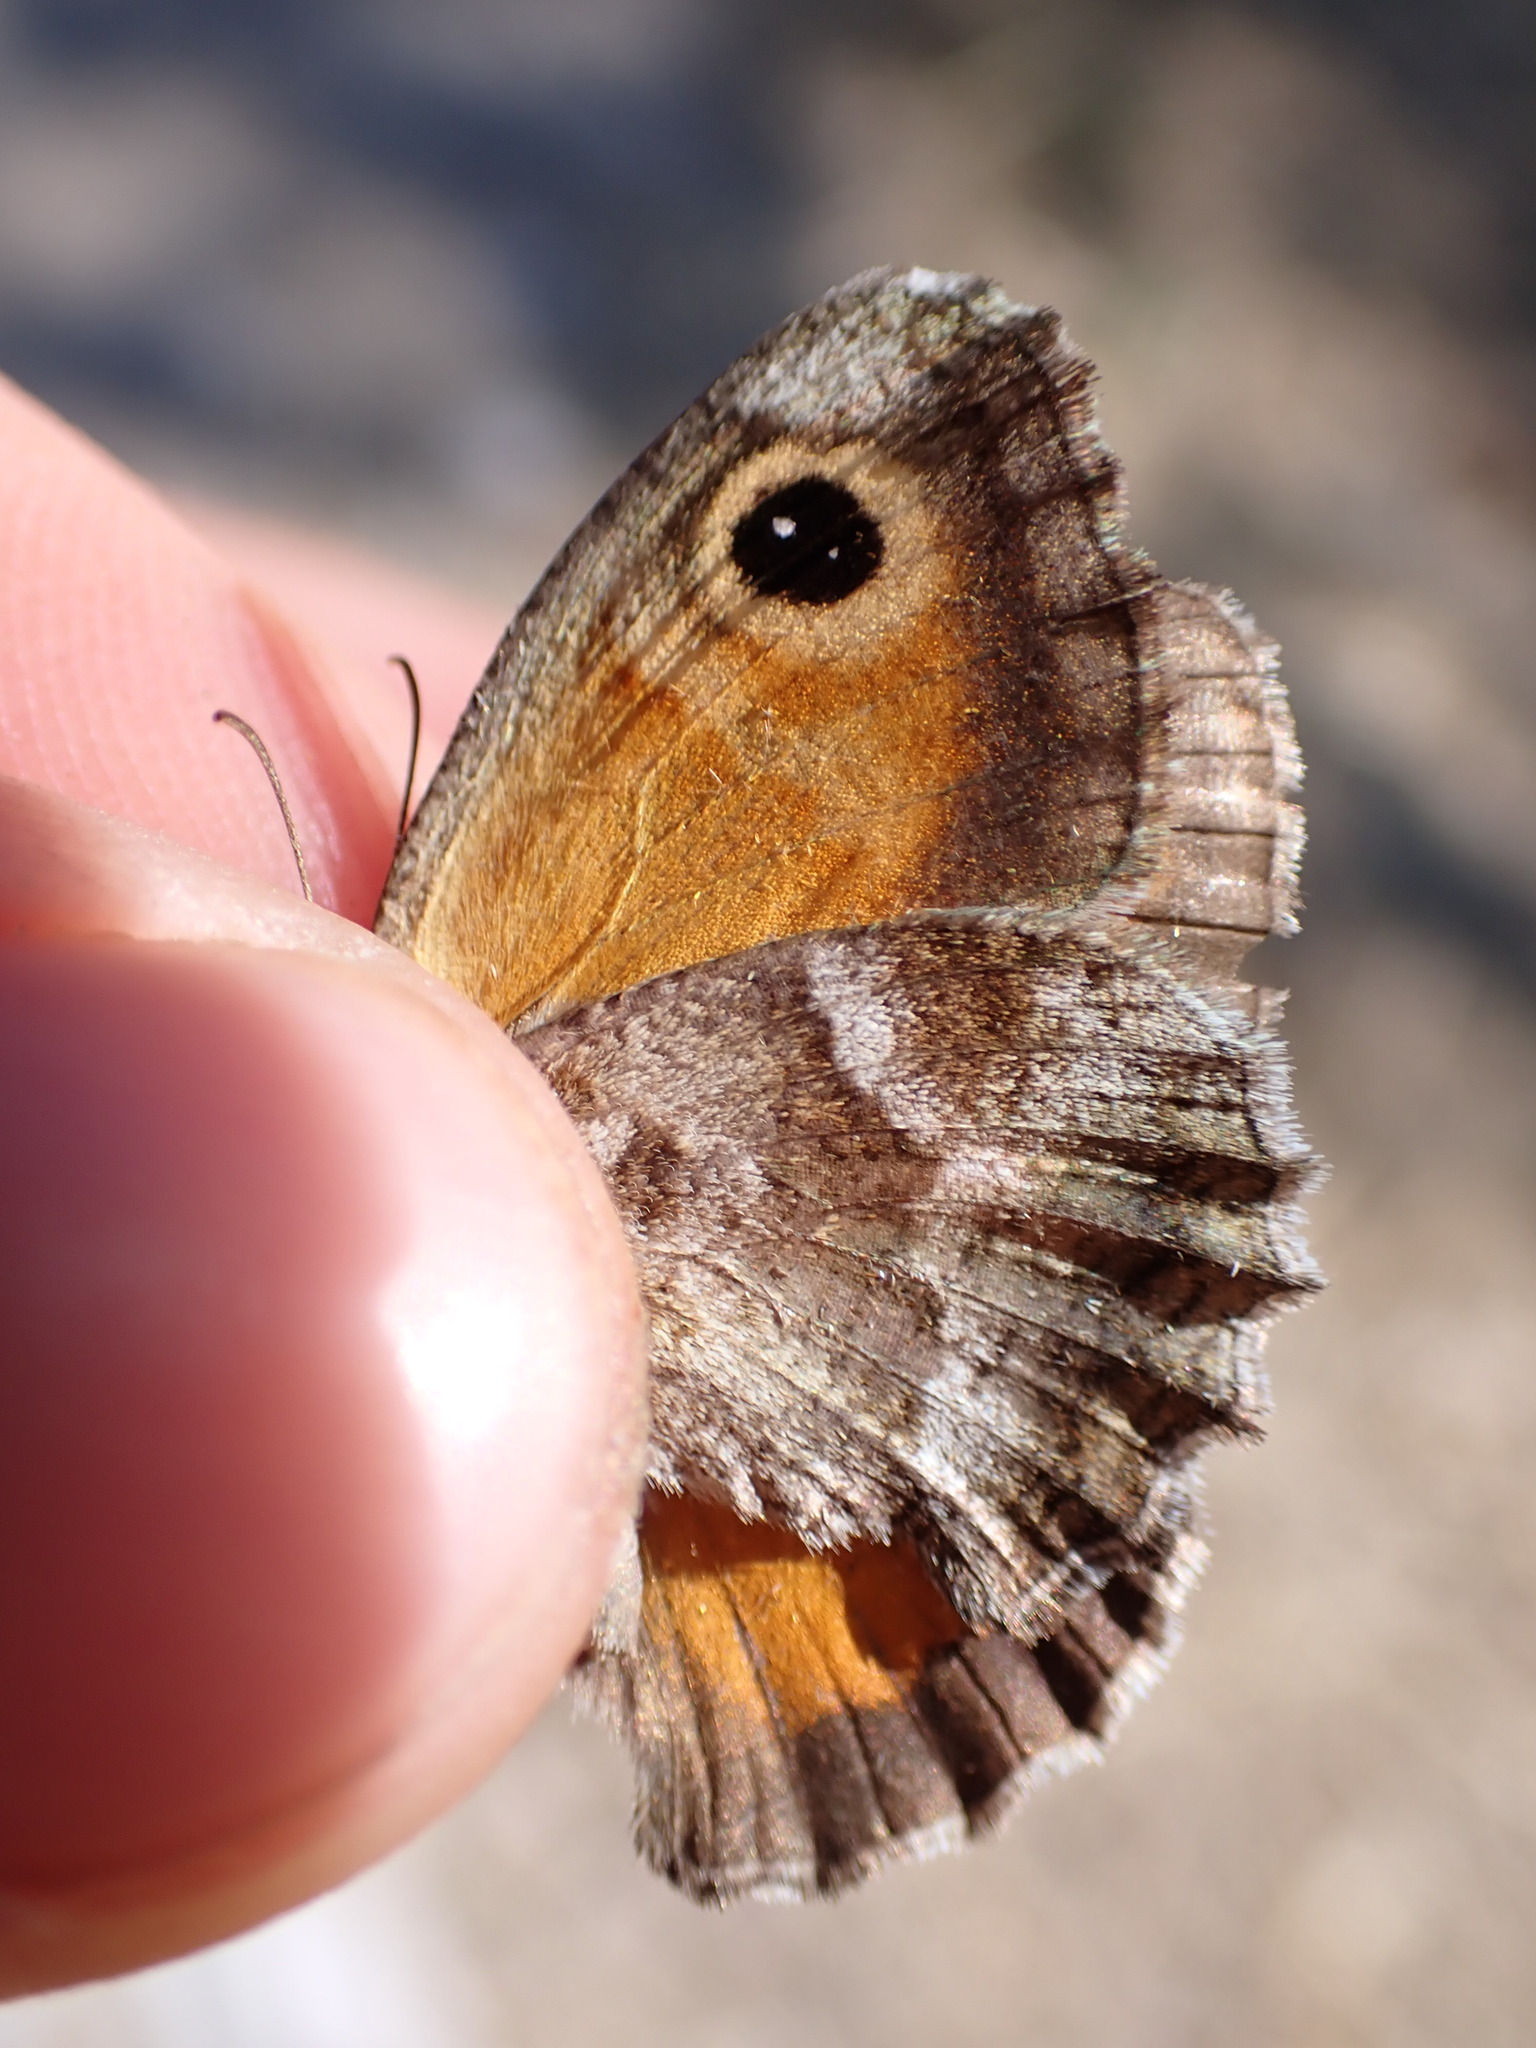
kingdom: Animalia
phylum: Arthropoda
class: Insecta
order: Lepidoptera
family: Nymphalidae
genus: Pyronia
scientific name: Pyronia cecilia
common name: Southern gatekeeper
